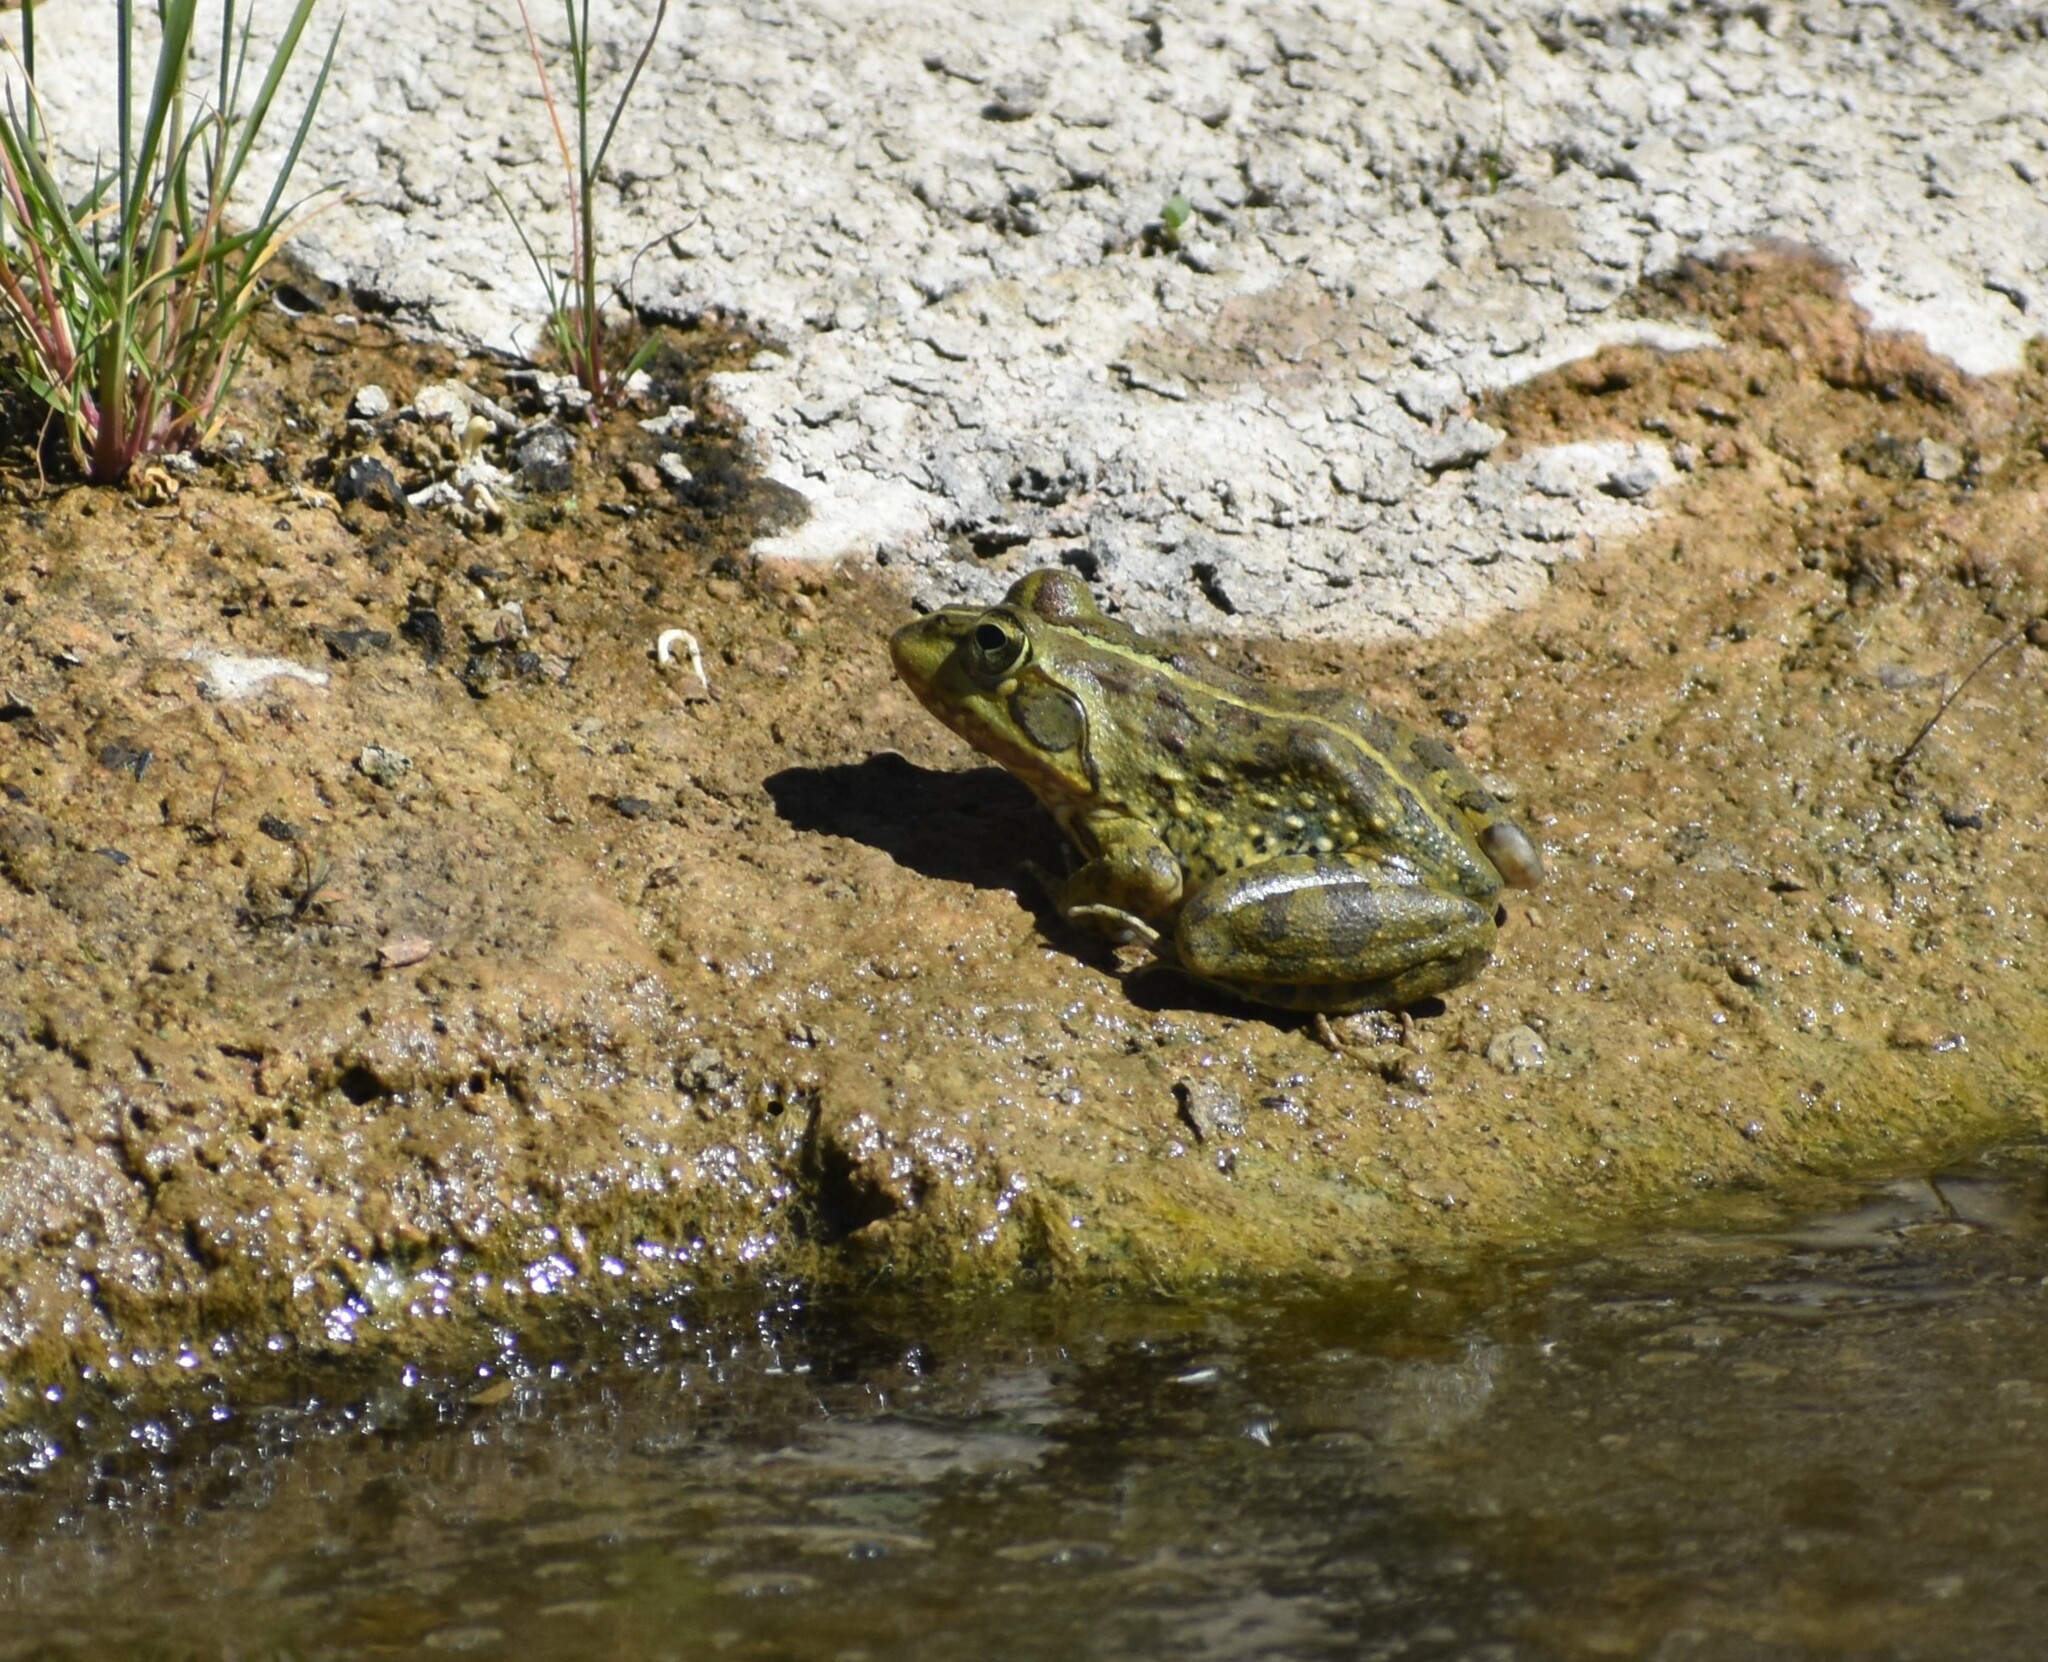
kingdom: Animalia
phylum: Chordata
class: Amphibia
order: Anura
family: Pyxicephalidae
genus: Amietia
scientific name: Amietia poyntoni
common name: Poynton's river frog
